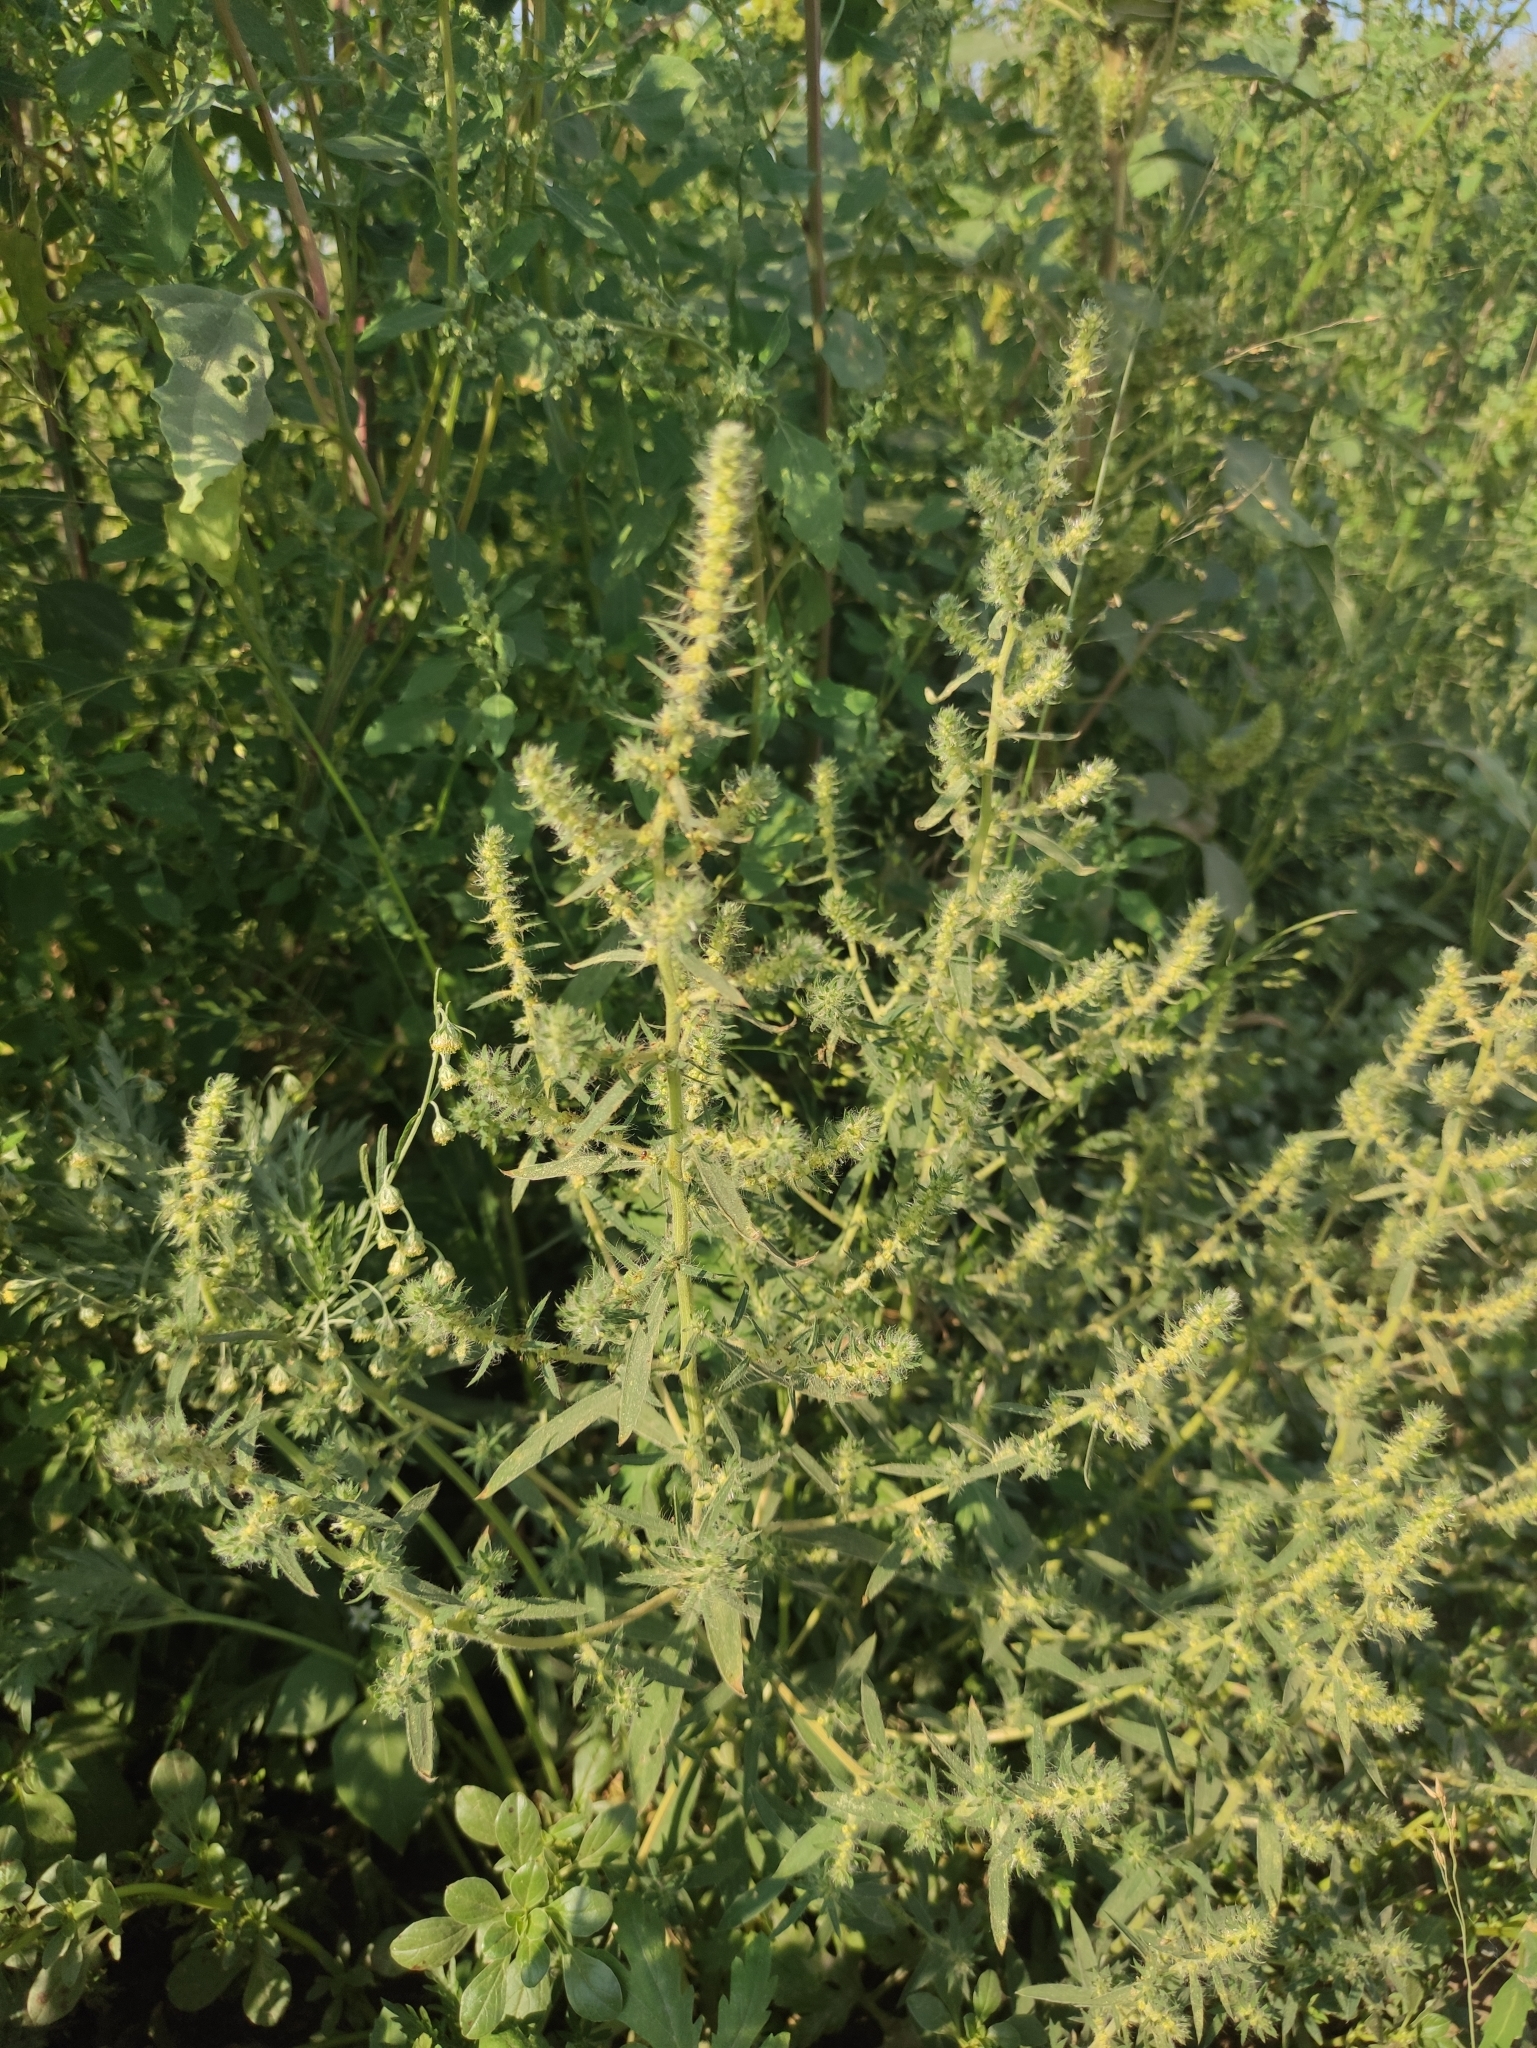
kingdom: Plantae
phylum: Tracheophyta
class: Magnoliopsida
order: Caryophyllales
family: Amaranthaceae
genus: Bassia
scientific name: Bassia scoparia
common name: Belvedere
